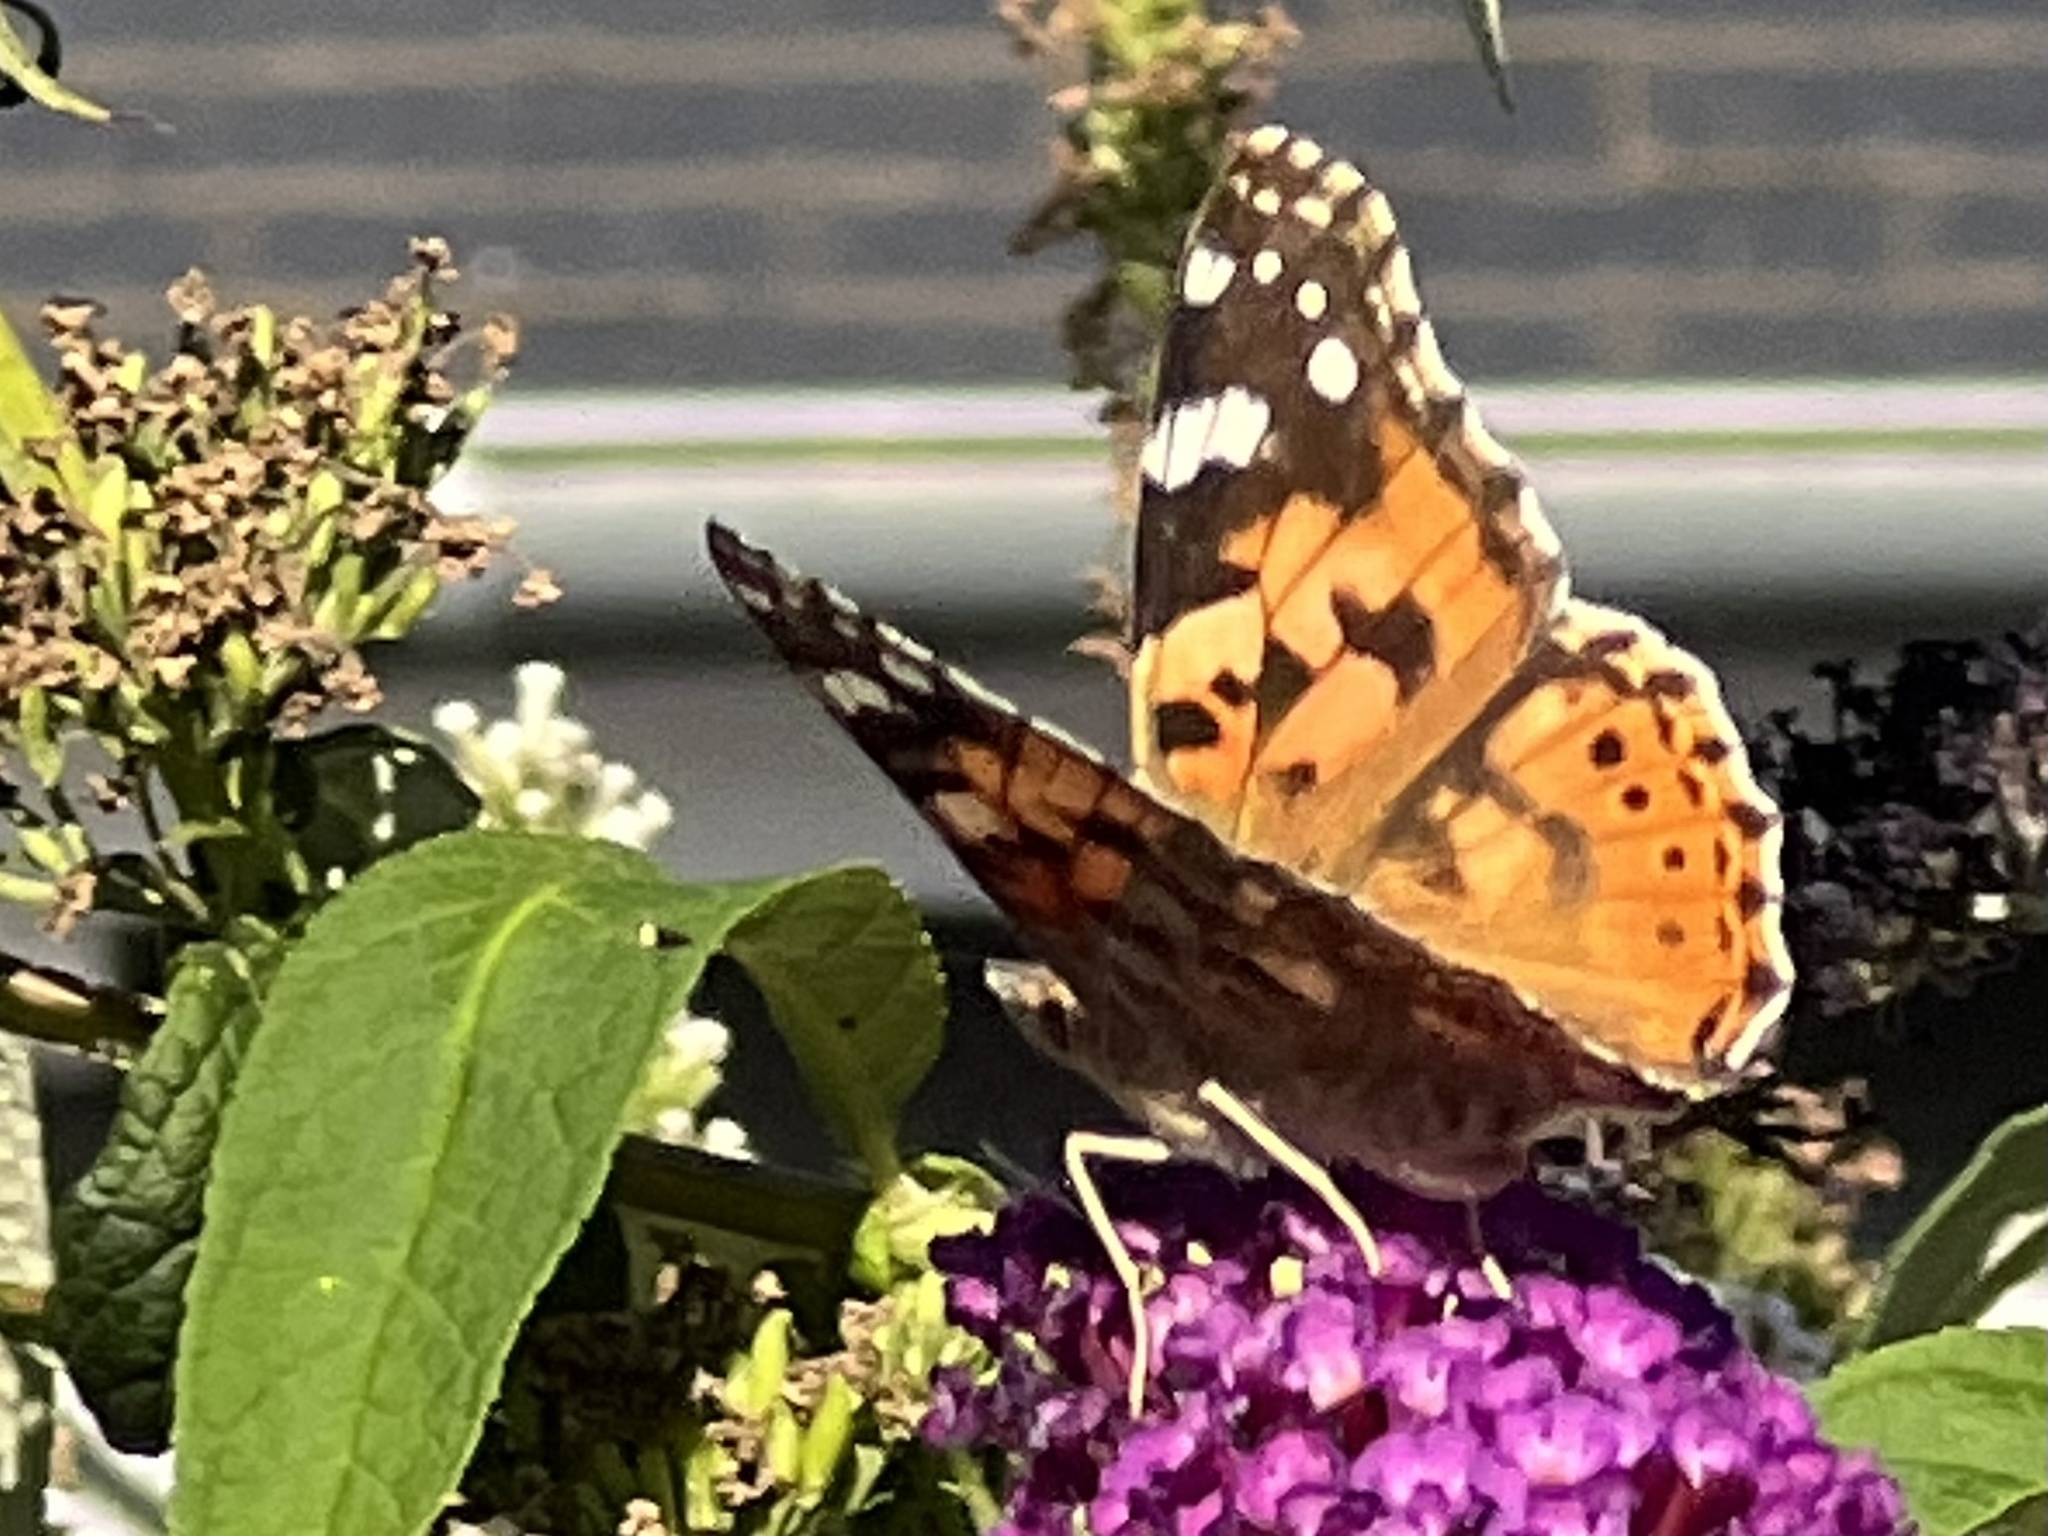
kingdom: Animalia
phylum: Arthropoda
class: Insecta
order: Lepidoptera
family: Nymphalidae
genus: Vanessa
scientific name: Vanessa cardui
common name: Painted lady
